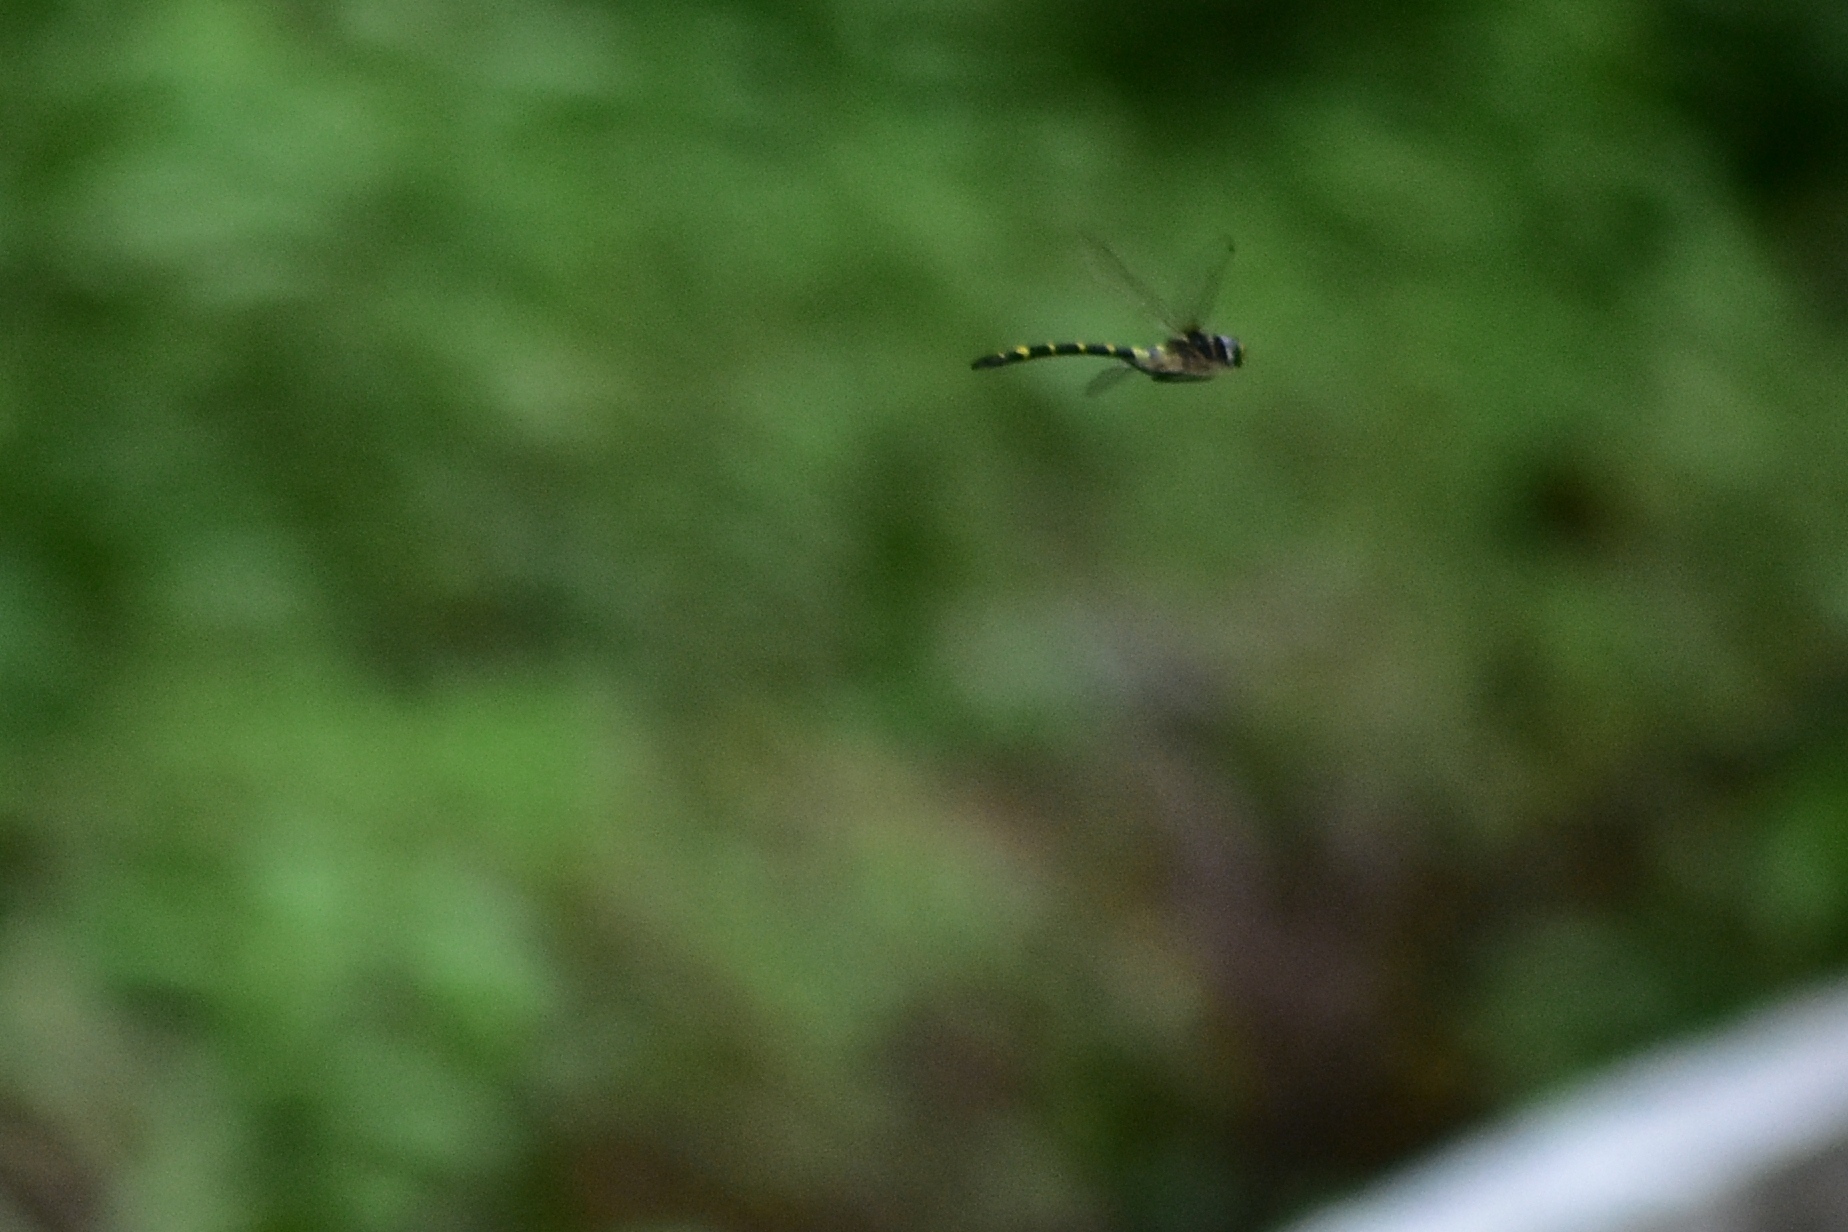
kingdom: Animalia
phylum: Arthropoda
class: Insecta
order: Odonata
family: Gomphidae
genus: Ictinogomphus
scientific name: Ictinogomphus rapax
